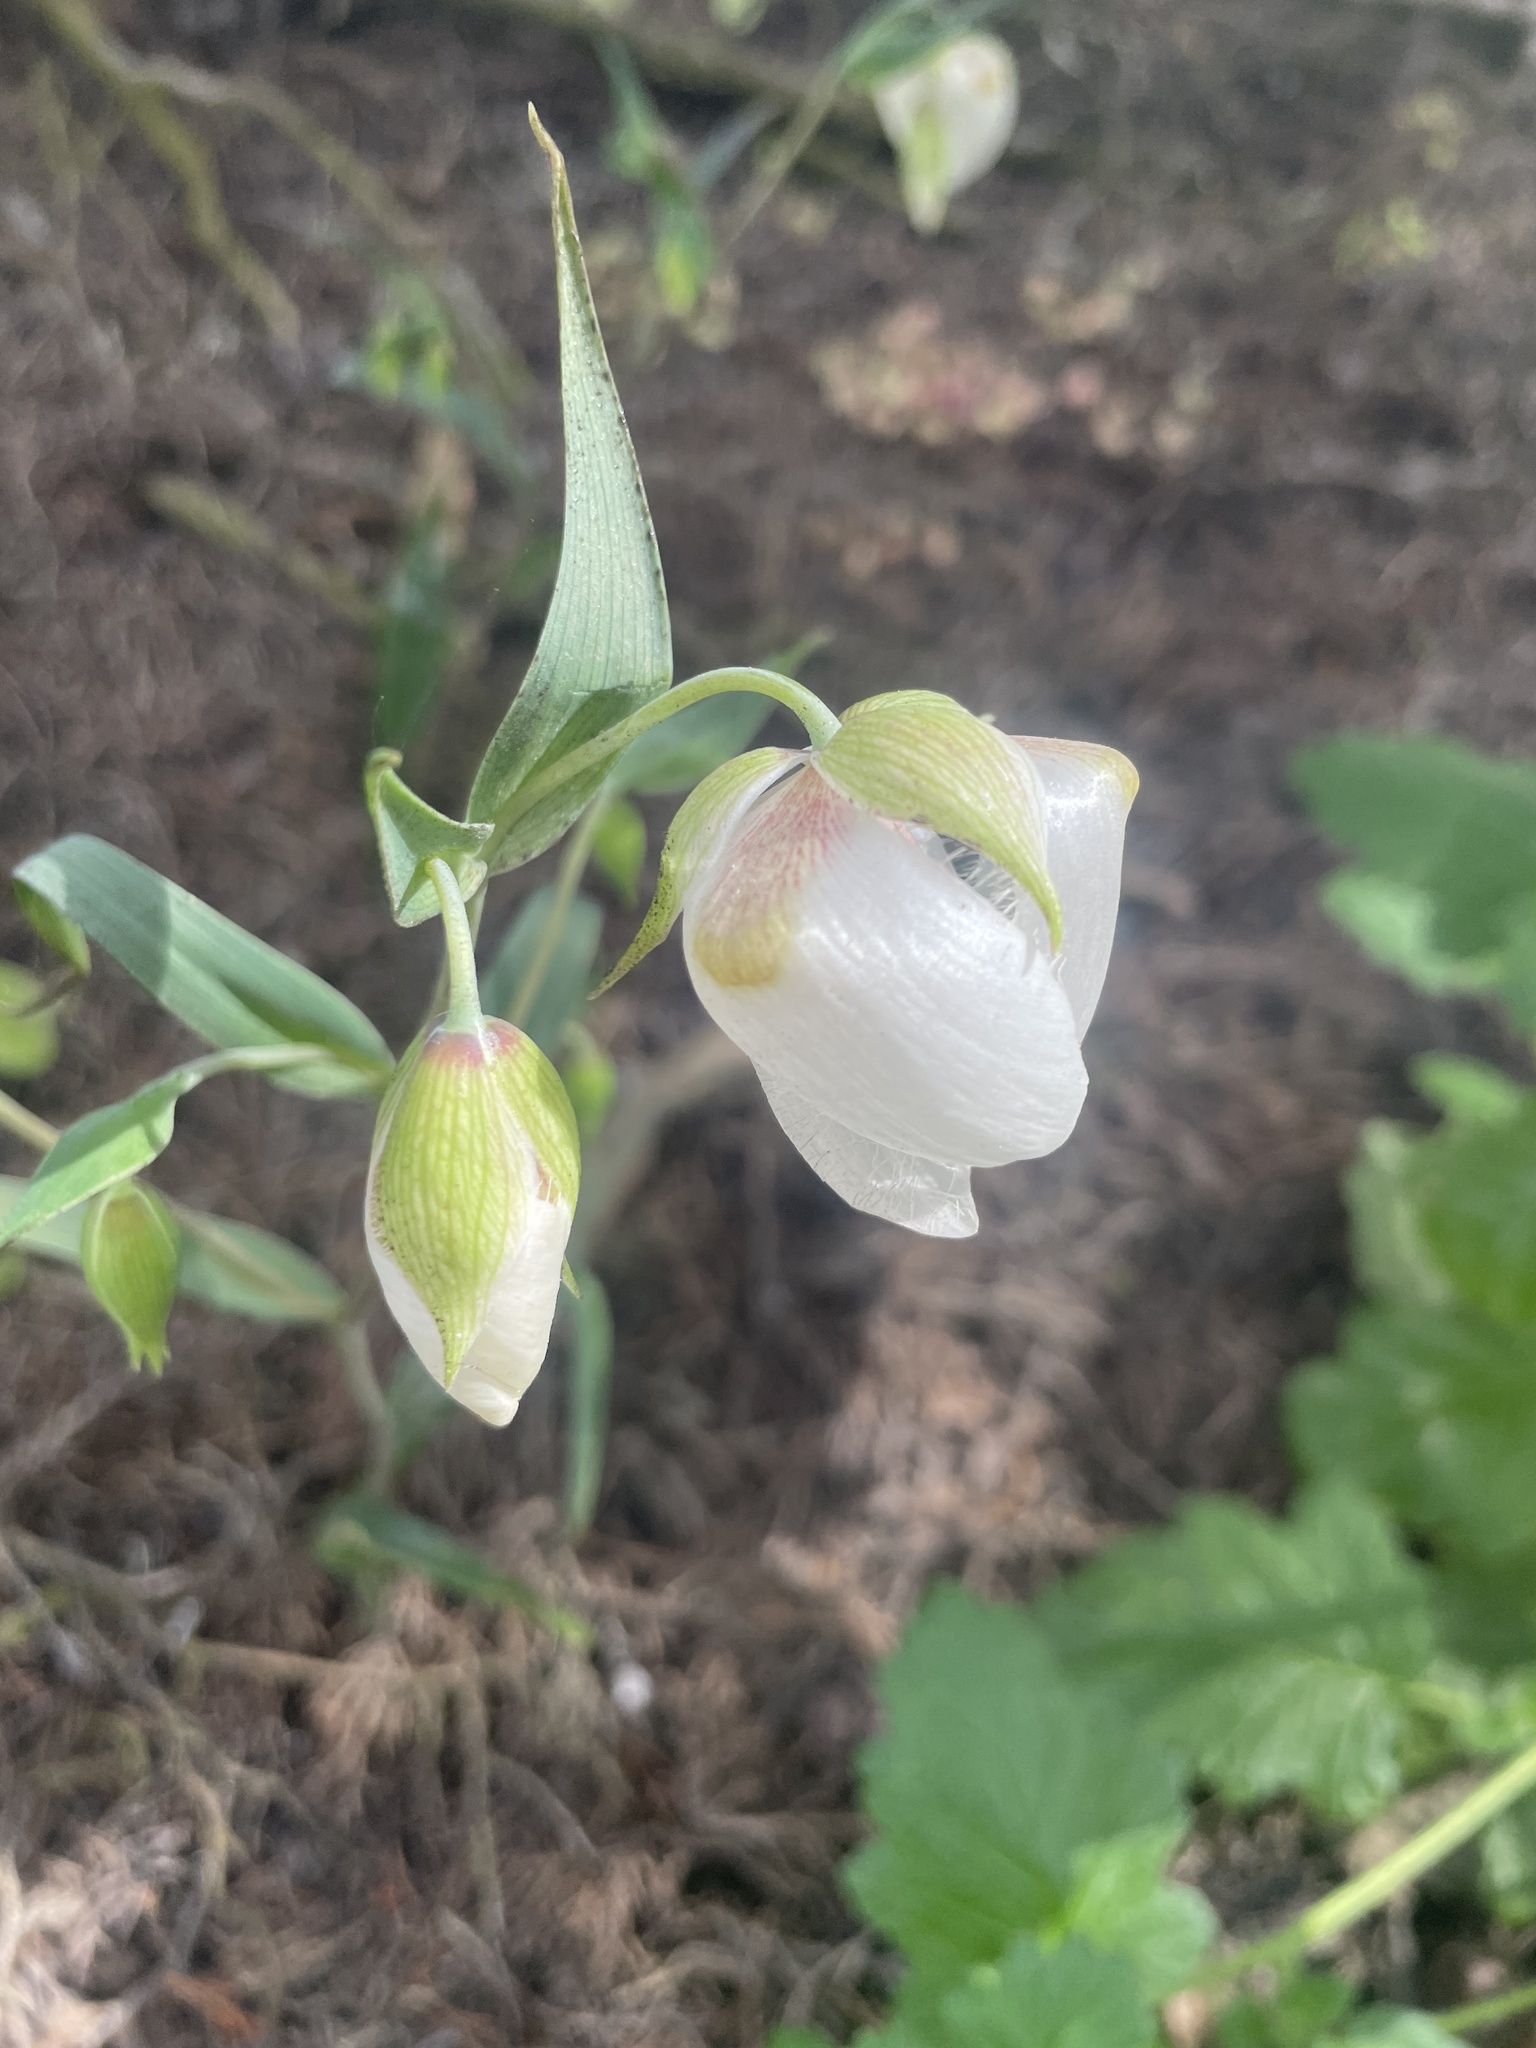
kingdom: Plantae
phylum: Tracheophyta
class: Liliopsida
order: Liliales
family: Liliaceae
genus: Calochortus
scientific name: Calochortus albus
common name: Fairy-lantern
